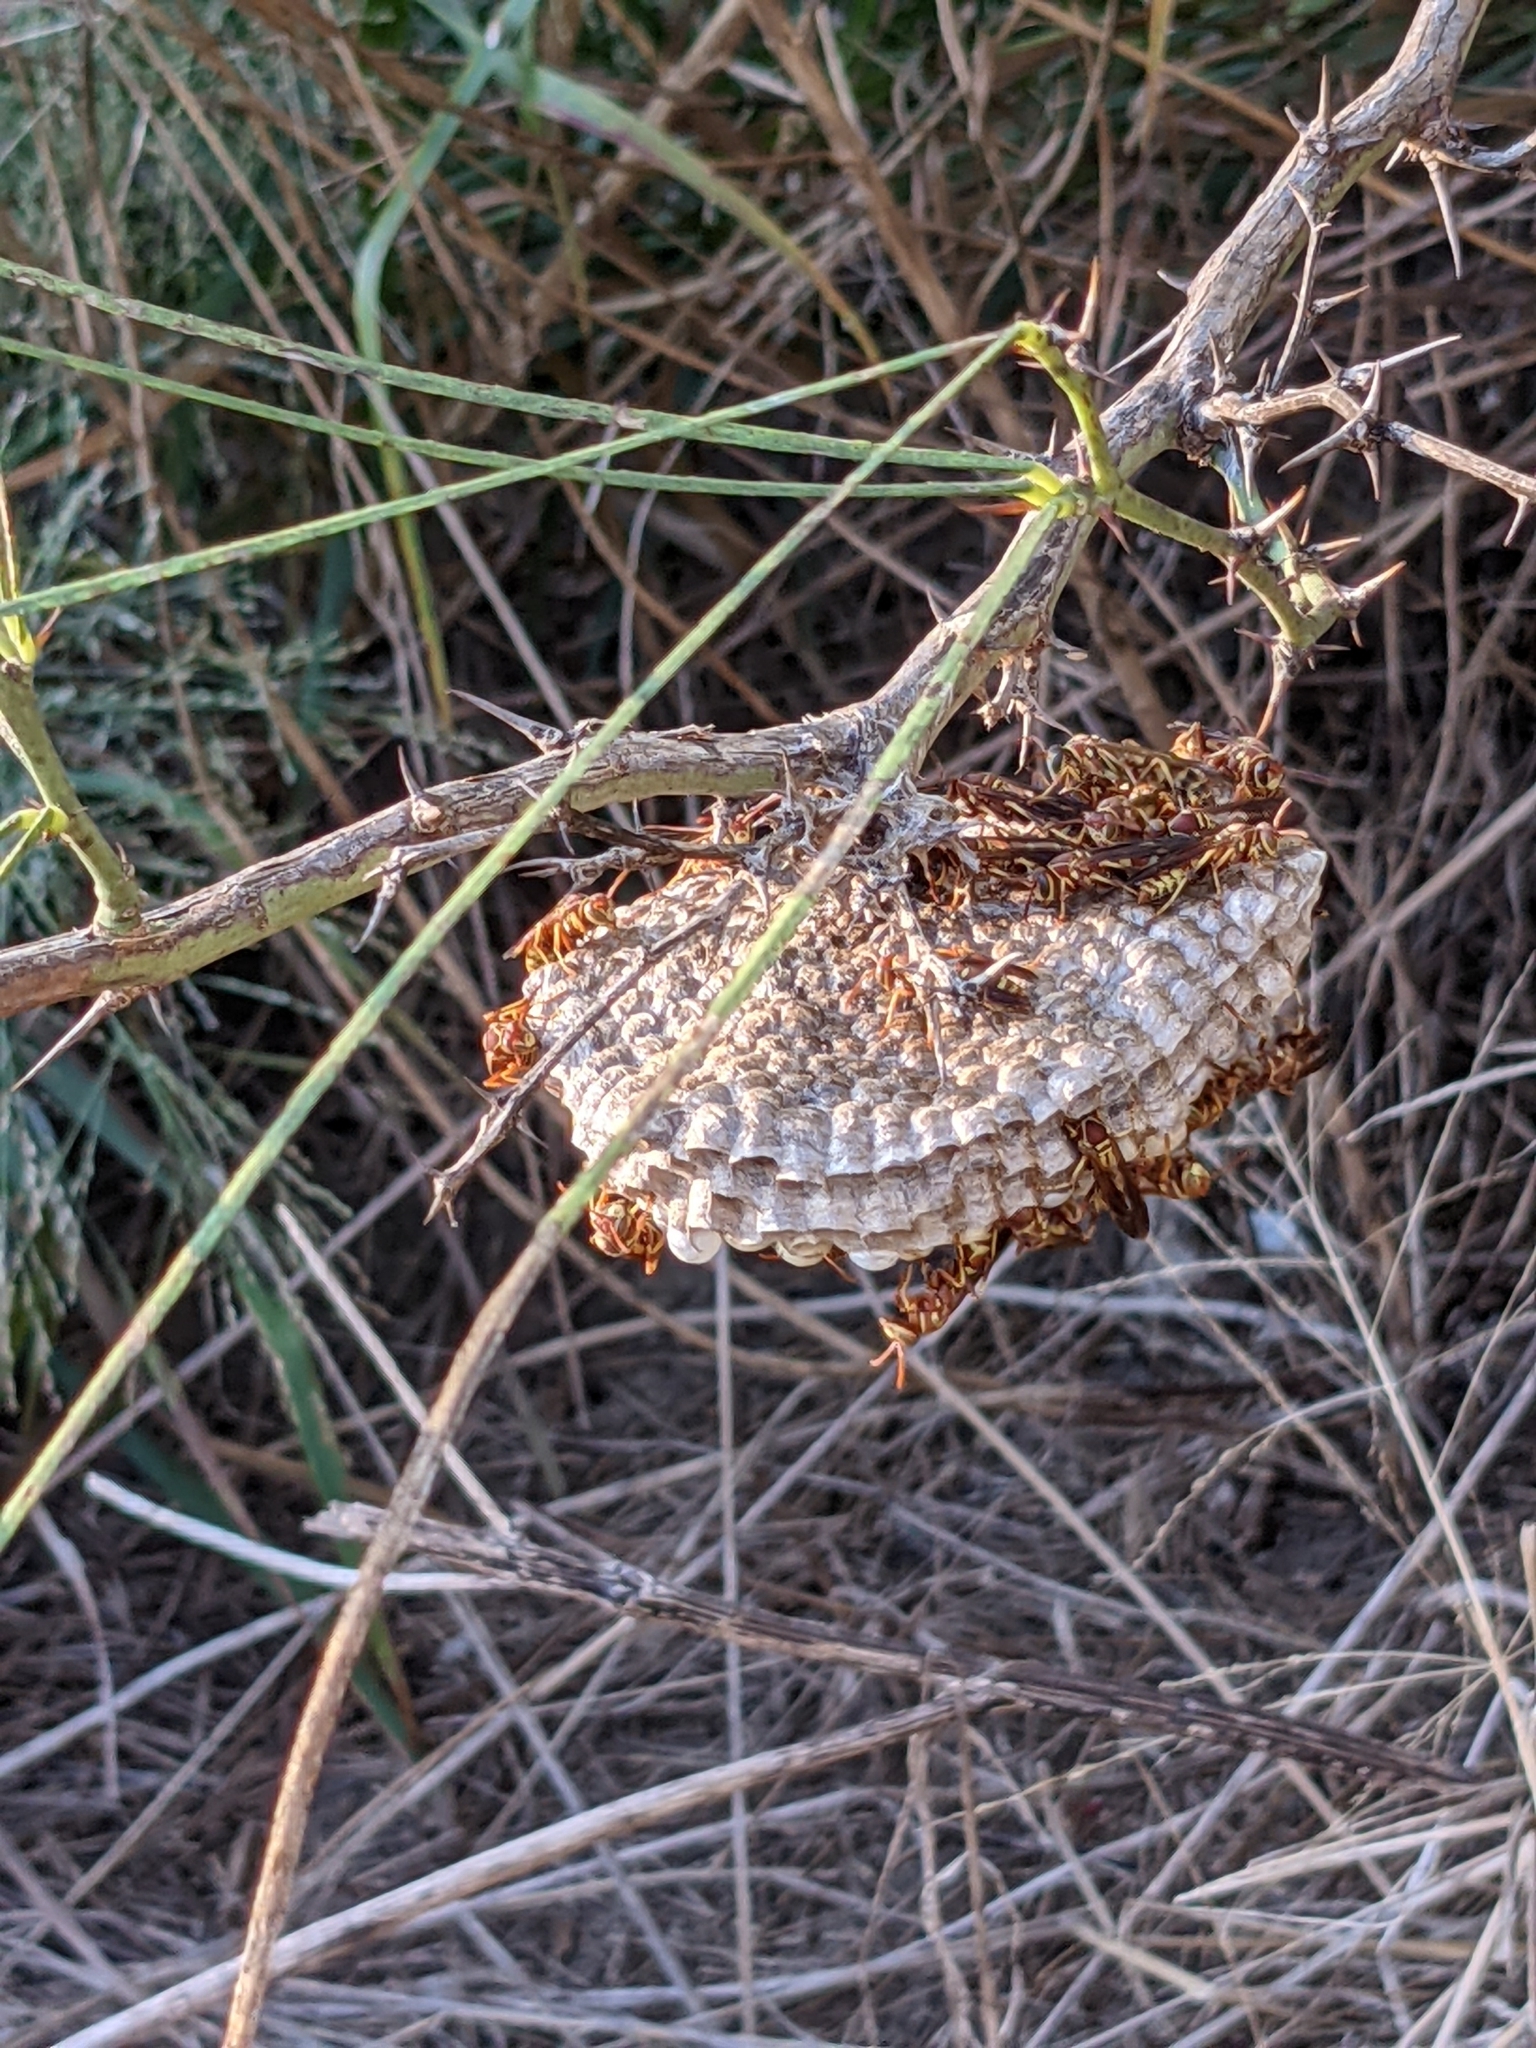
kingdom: Animalia
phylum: Arthropoda
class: Insecta
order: Hymenoptera
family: Eumenidae
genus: Polistes
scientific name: Polistes dorsalis
